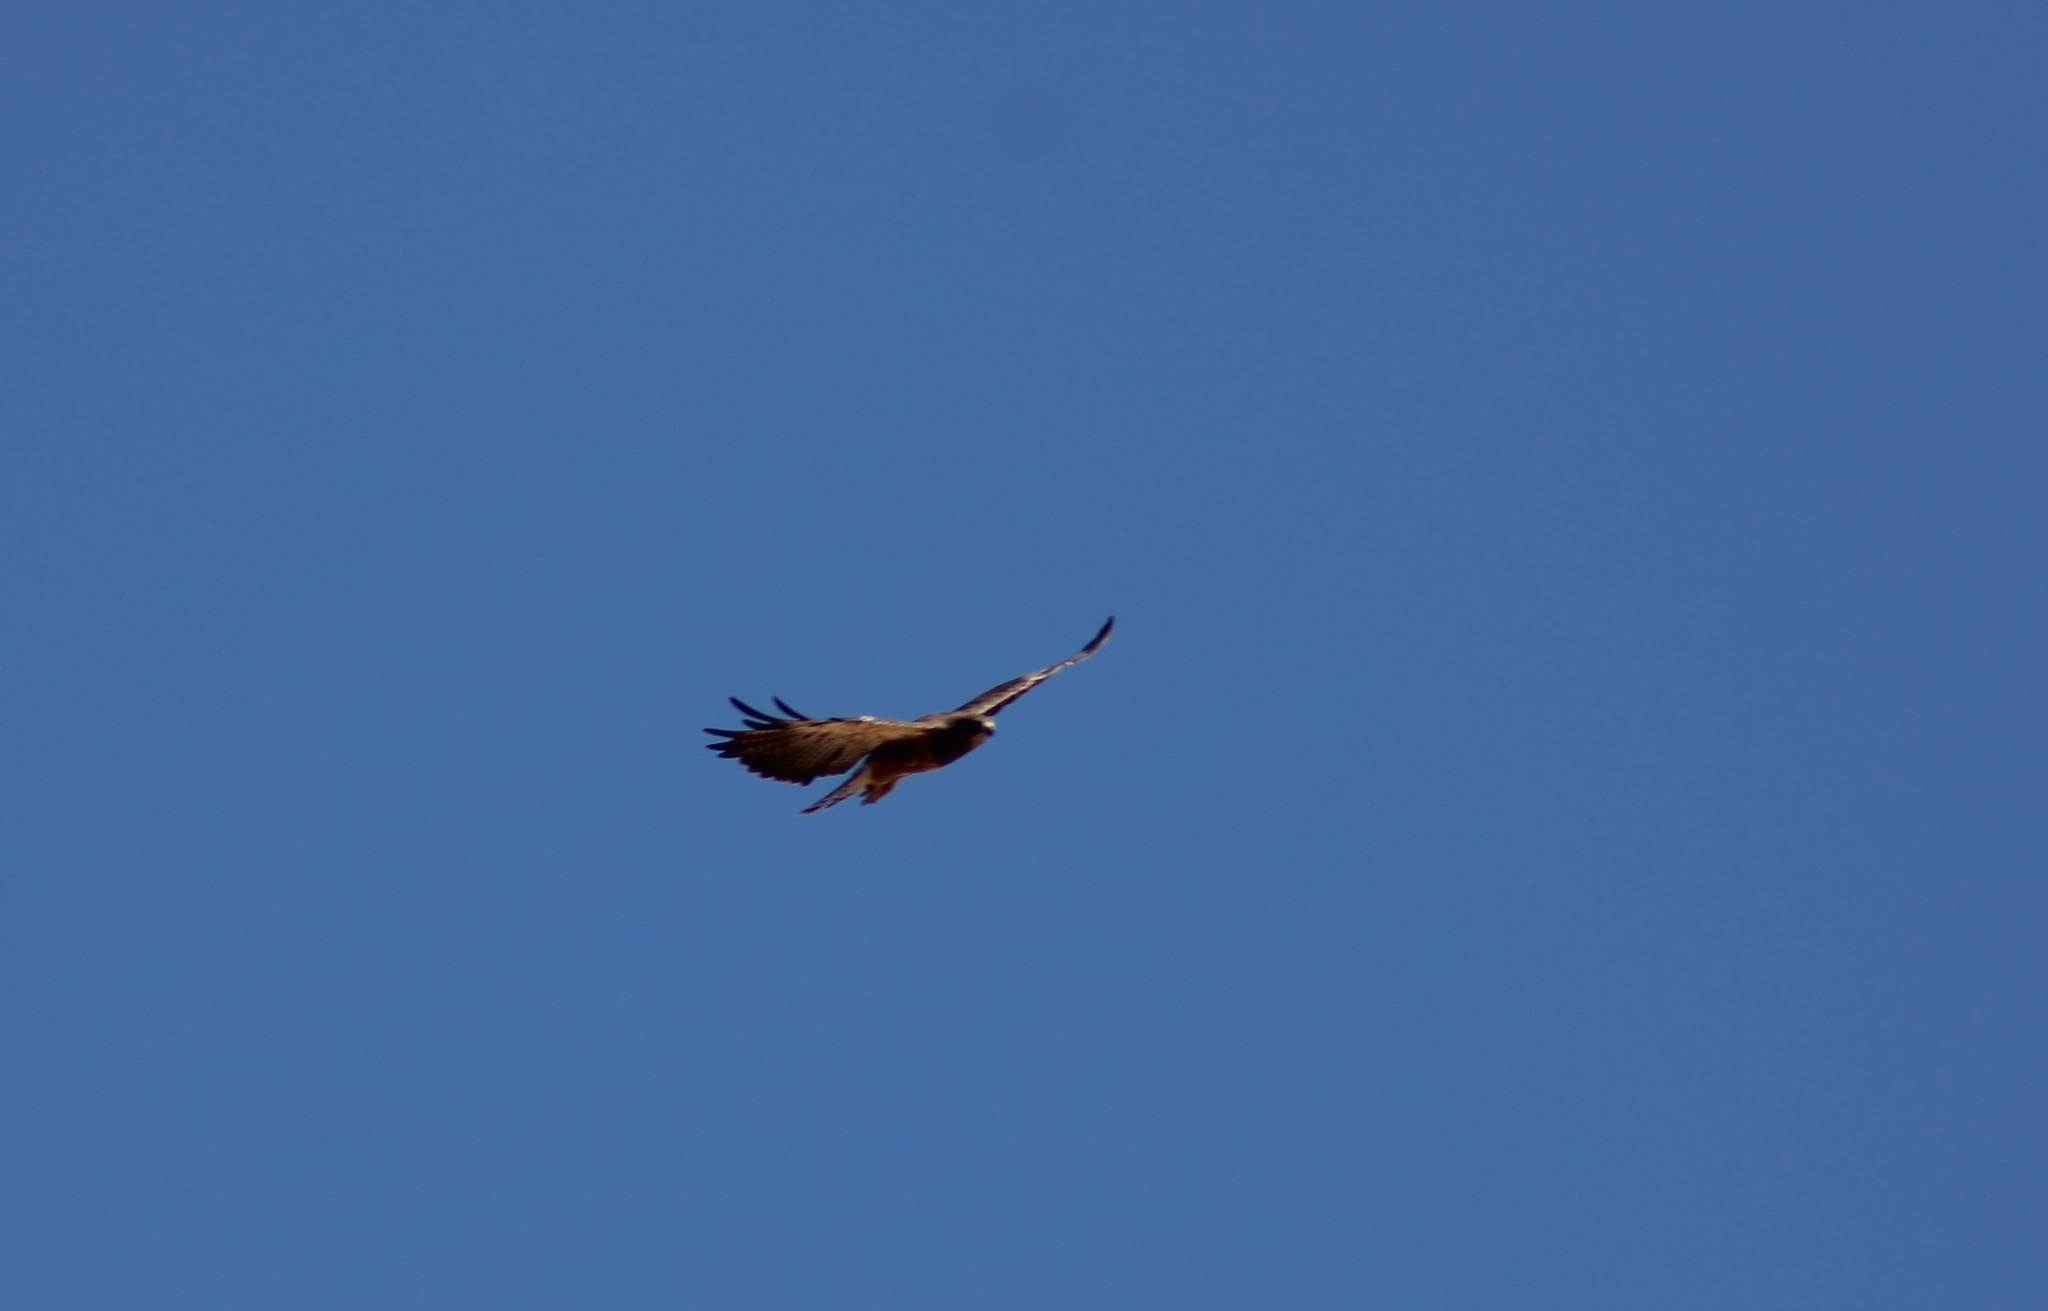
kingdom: Animalia
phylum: Chordata
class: Aves
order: Accipitriformes
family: Accipitridae
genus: Buteo
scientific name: Buteo swainsoni
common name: Swainson's hawk
